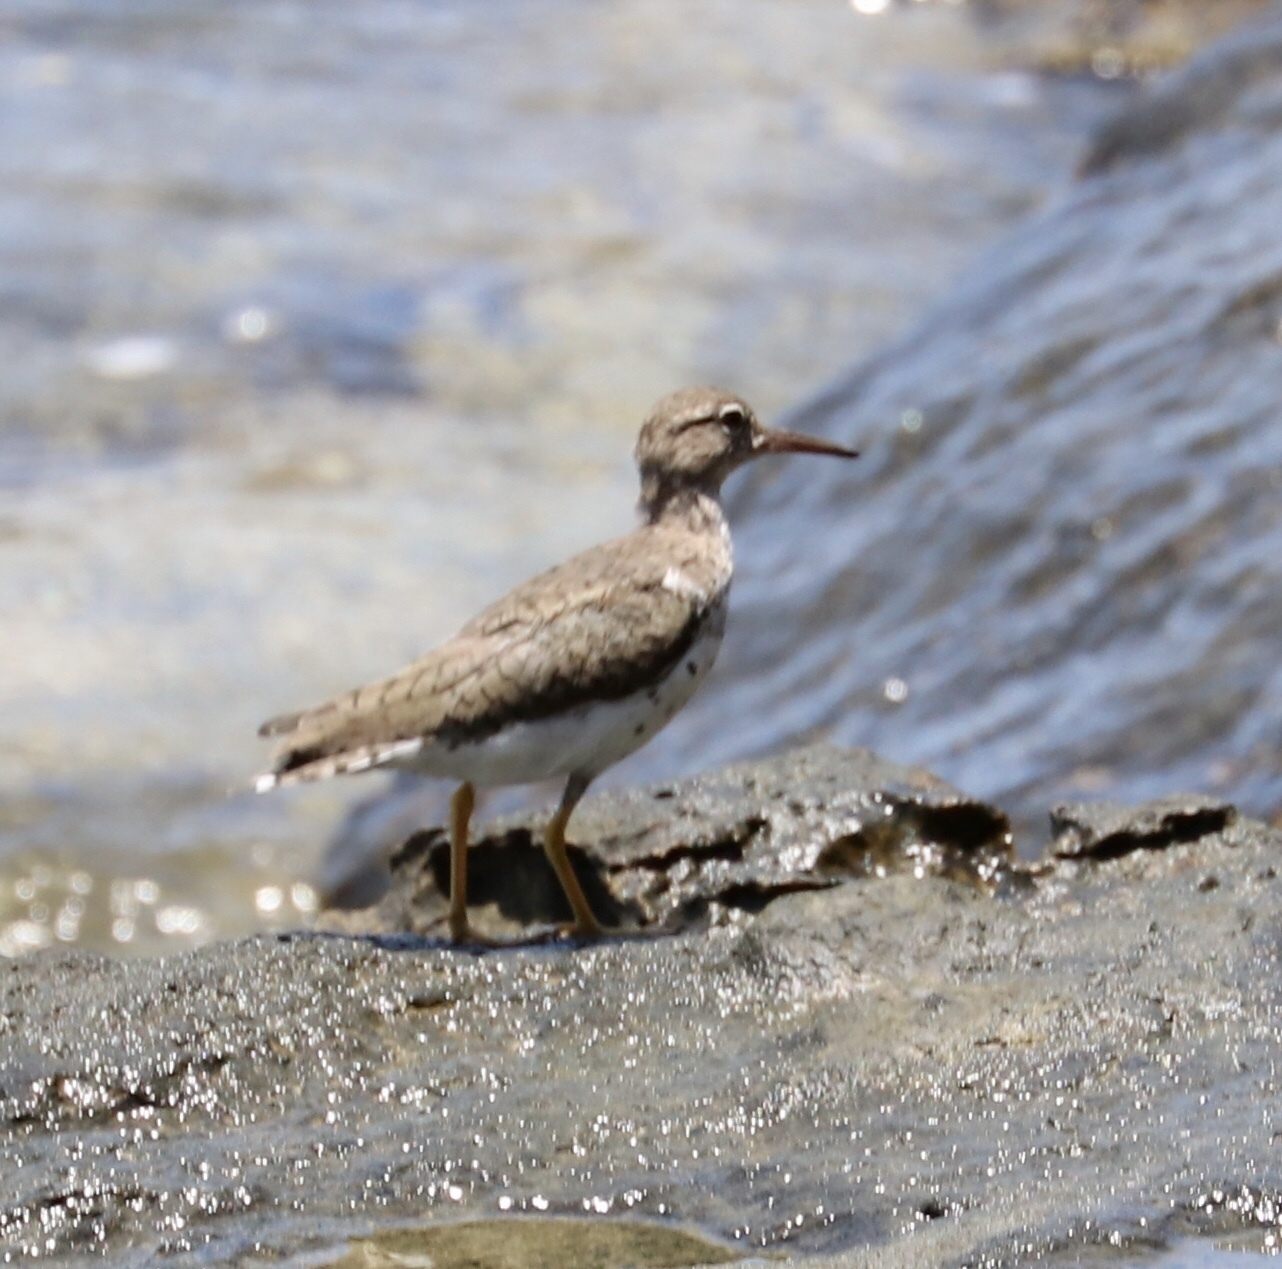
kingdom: Animalia
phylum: Chordata
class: Aves
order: Charadriiformes
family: Scolopacidae
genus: Actitis
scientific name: Actitis macularius
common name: Spotted sandpiper
